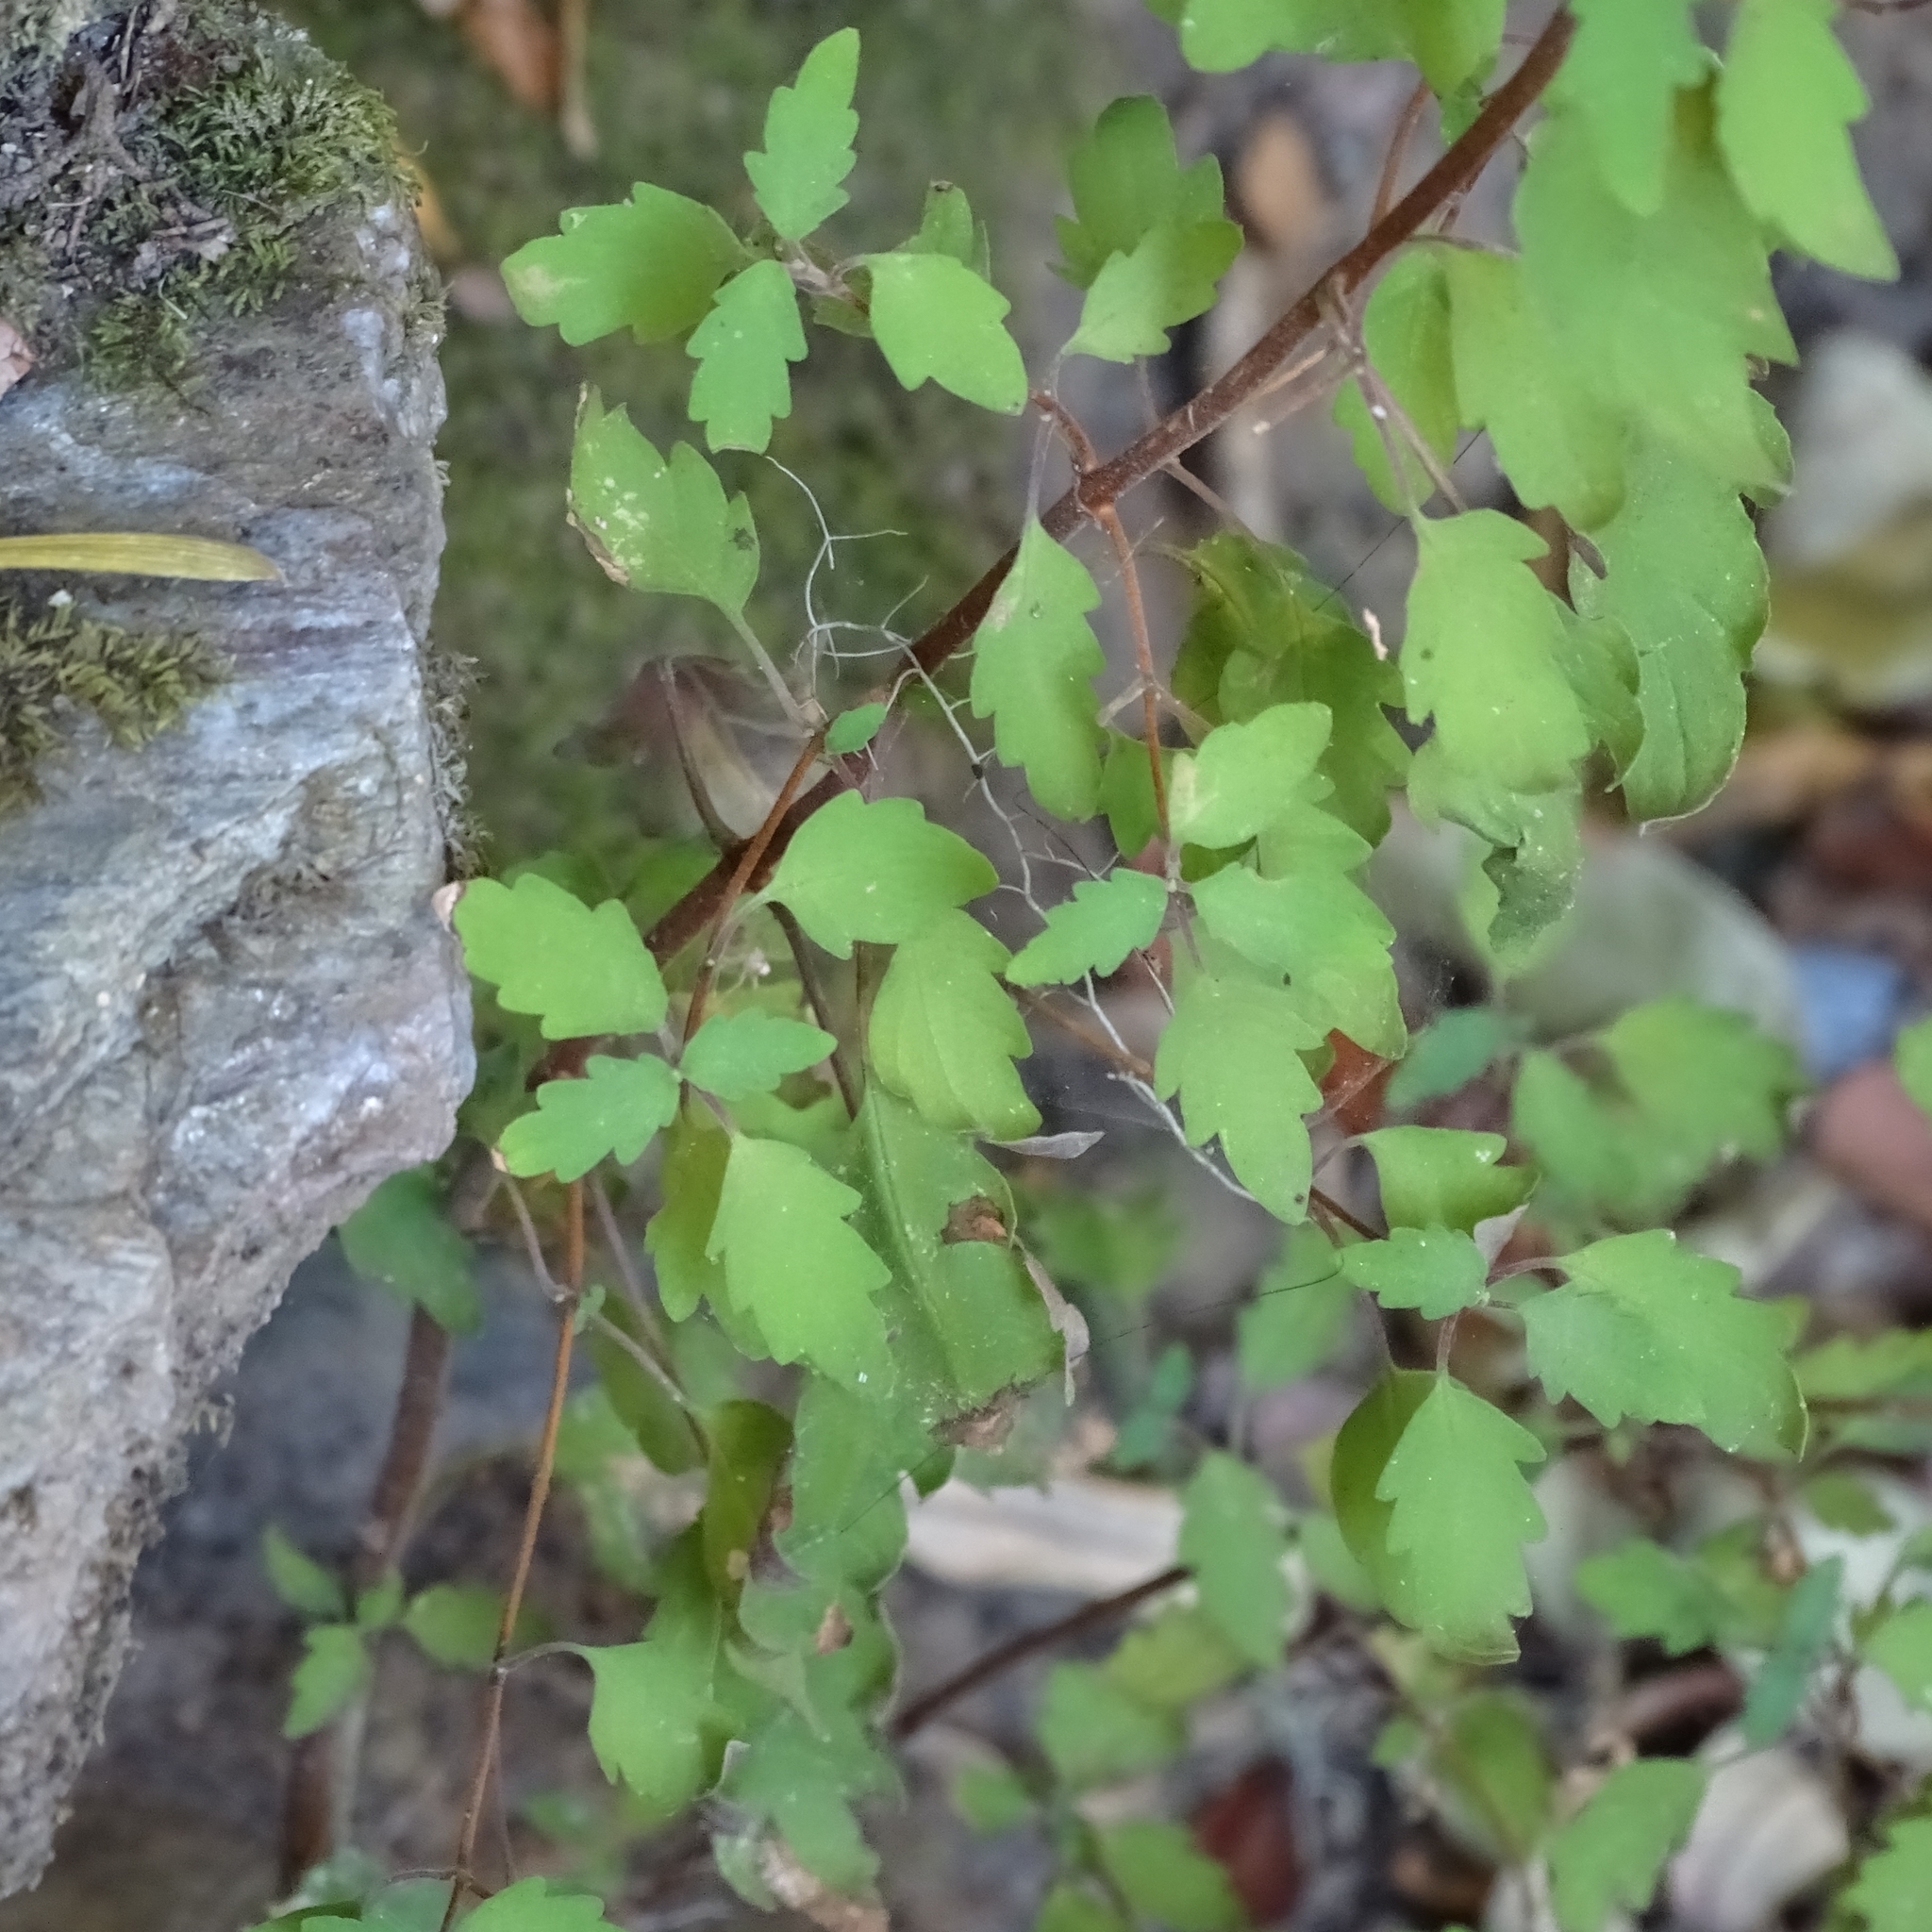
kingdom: Plantae
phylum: Tracheophyta
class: Magnoliopsida
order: Lamiales
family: Calceolariaceae
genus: Jovellana
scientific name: Jovellana violacea
